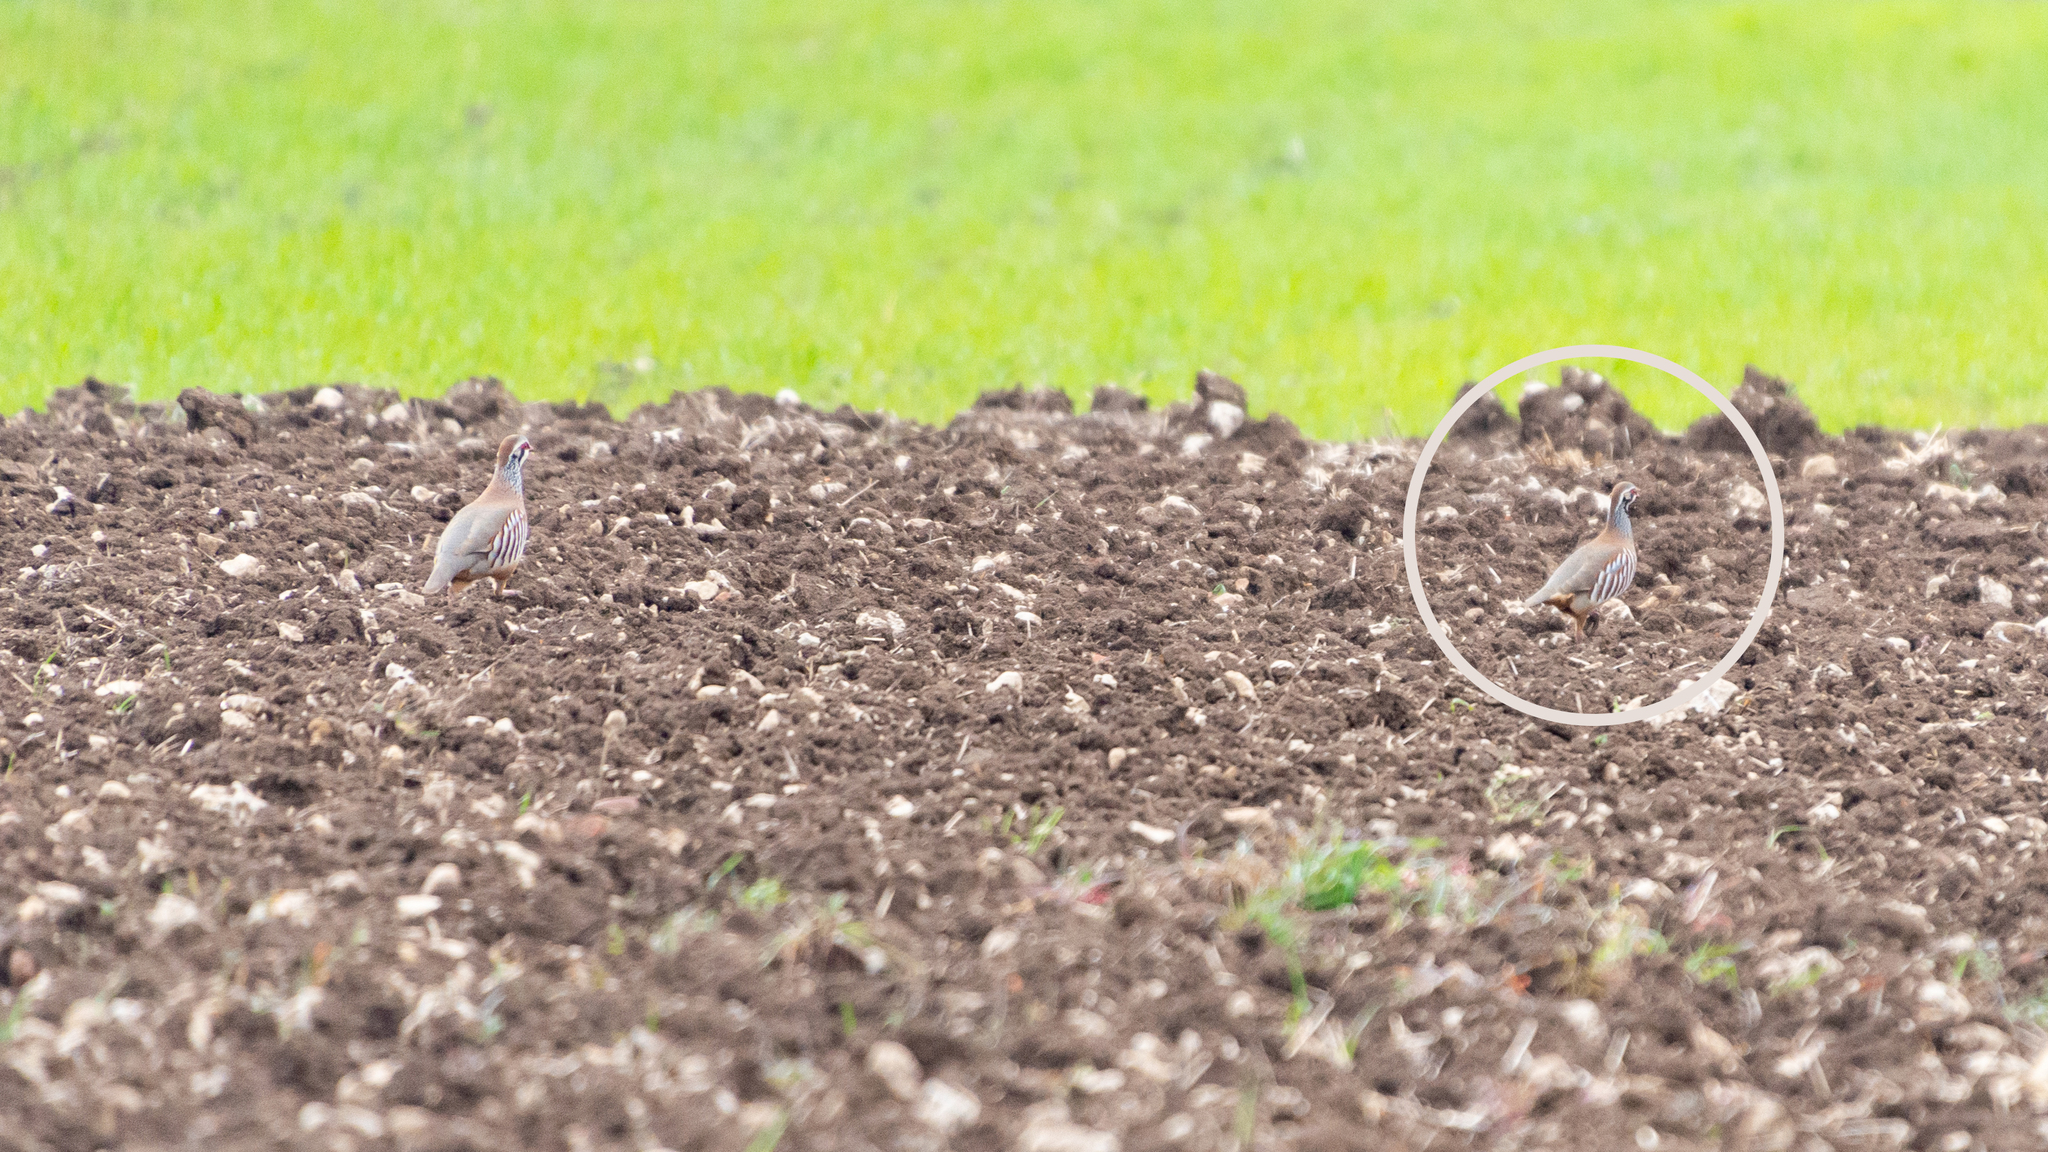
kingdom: Animalia
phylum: Chordata
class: Aves
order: Galliformes
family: Phasianidae
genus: Alectoris
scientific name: Alectoris rufa
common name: Red-legged partridge
